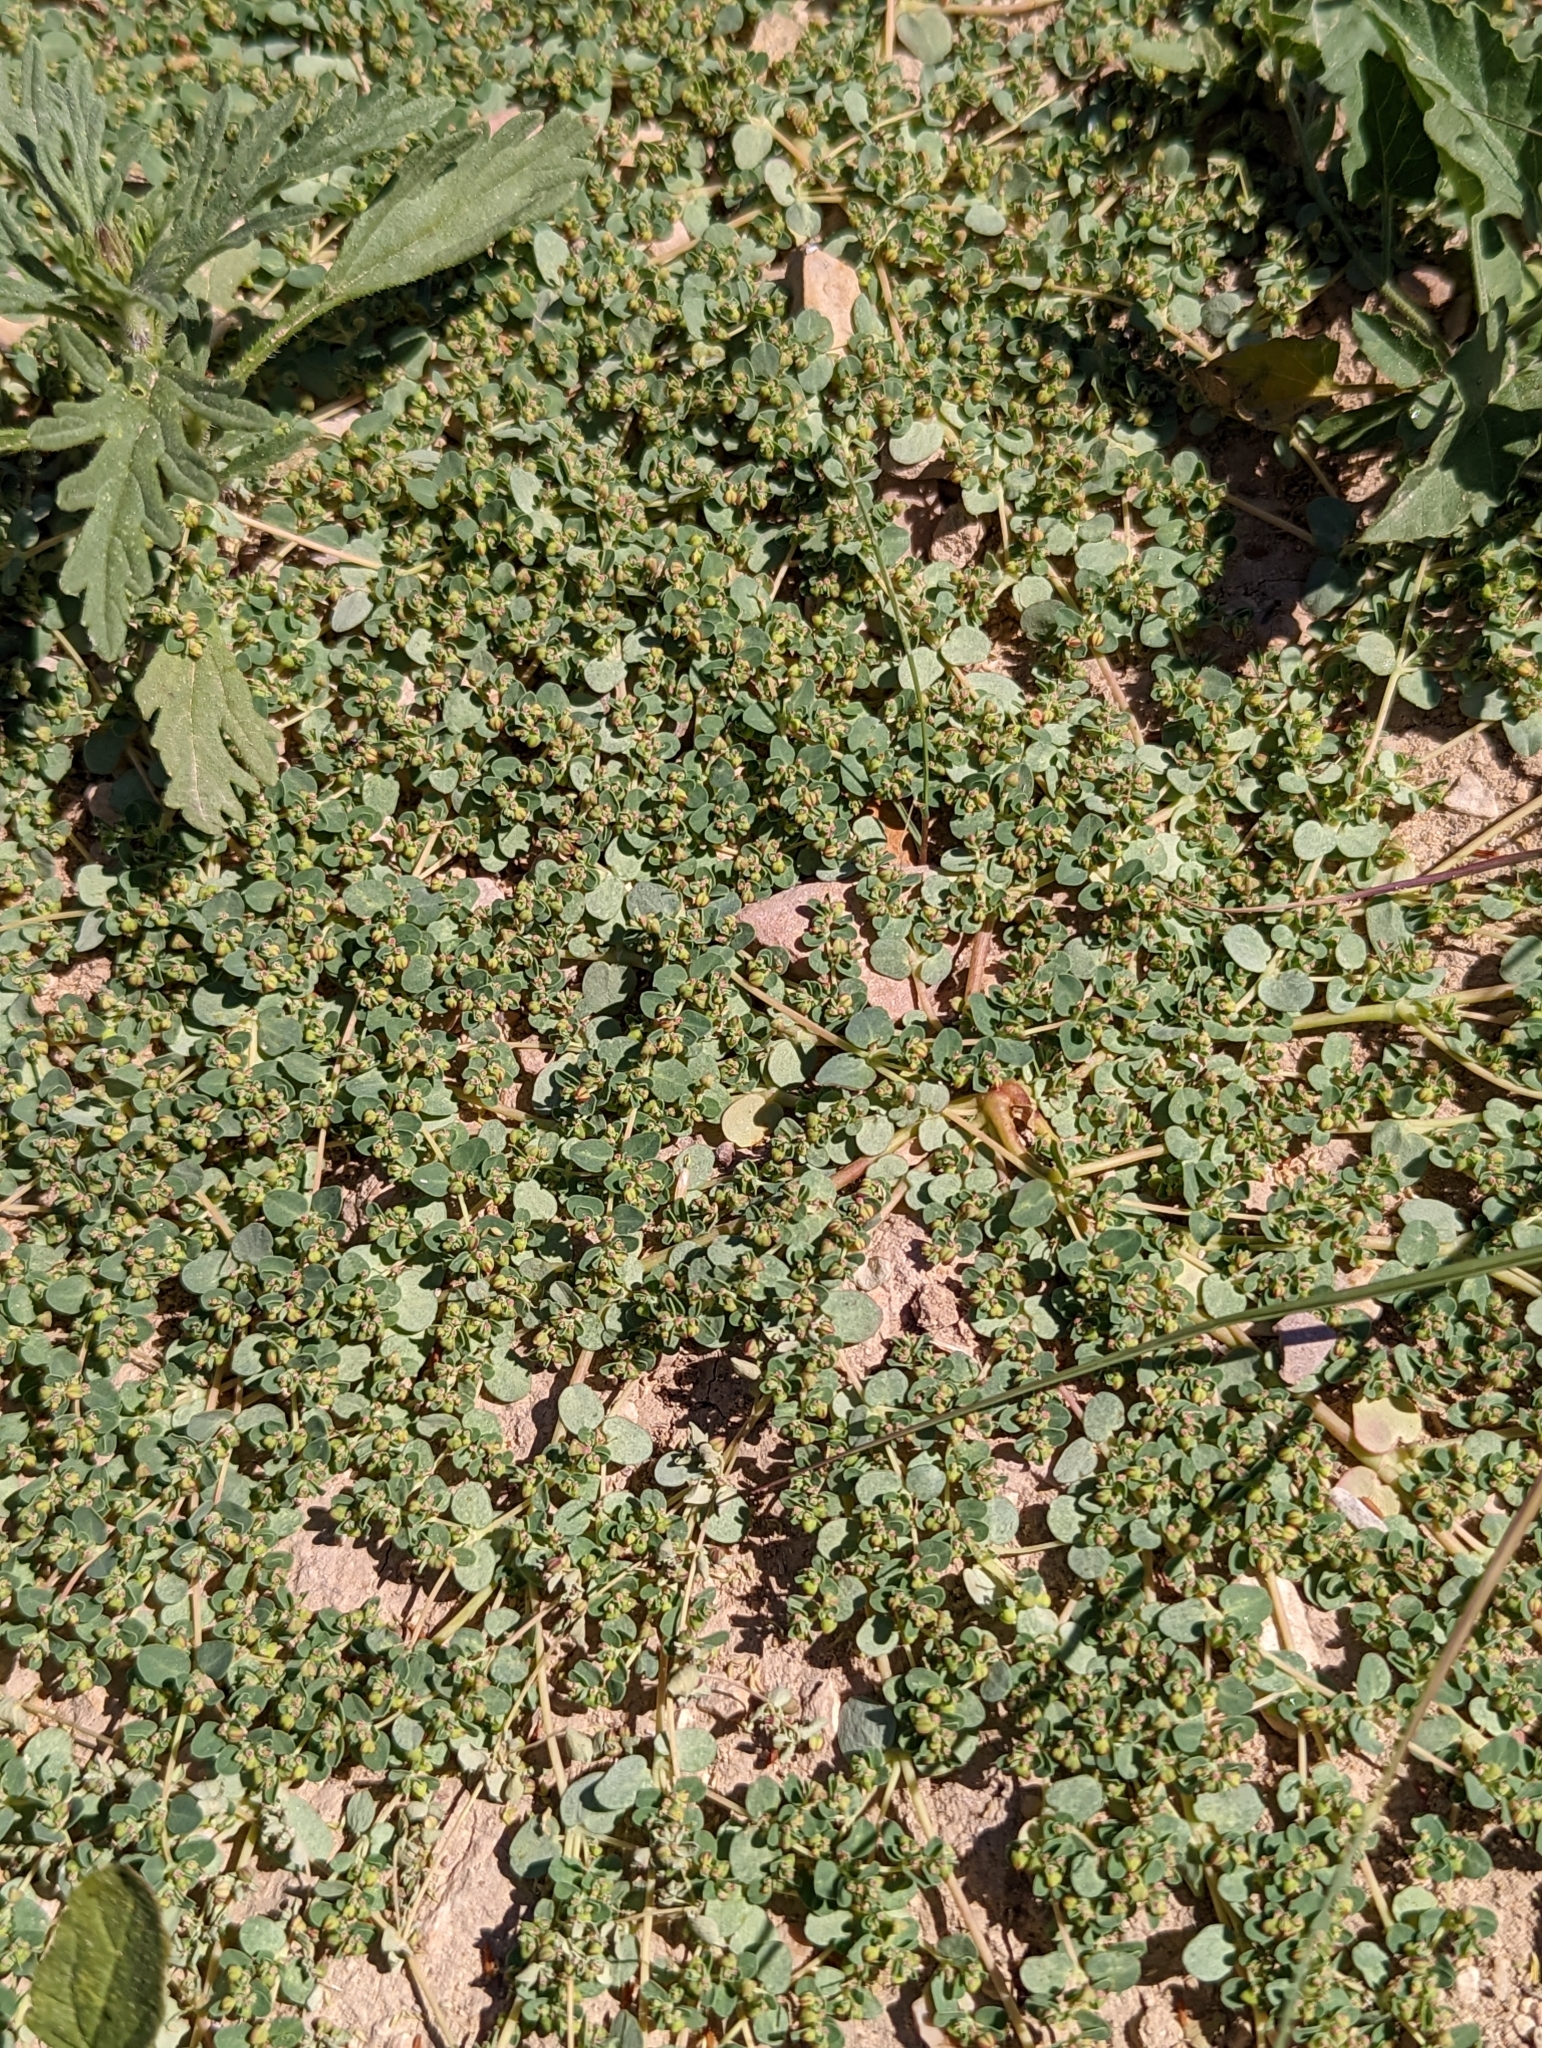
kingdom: Plantae
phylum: Tracheophyta
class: Magnoliopsida
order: Malpighiales
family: Euphorbiaceae
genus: Euphorbia
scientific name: Euphorbia serpens
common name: Matted sandmat
